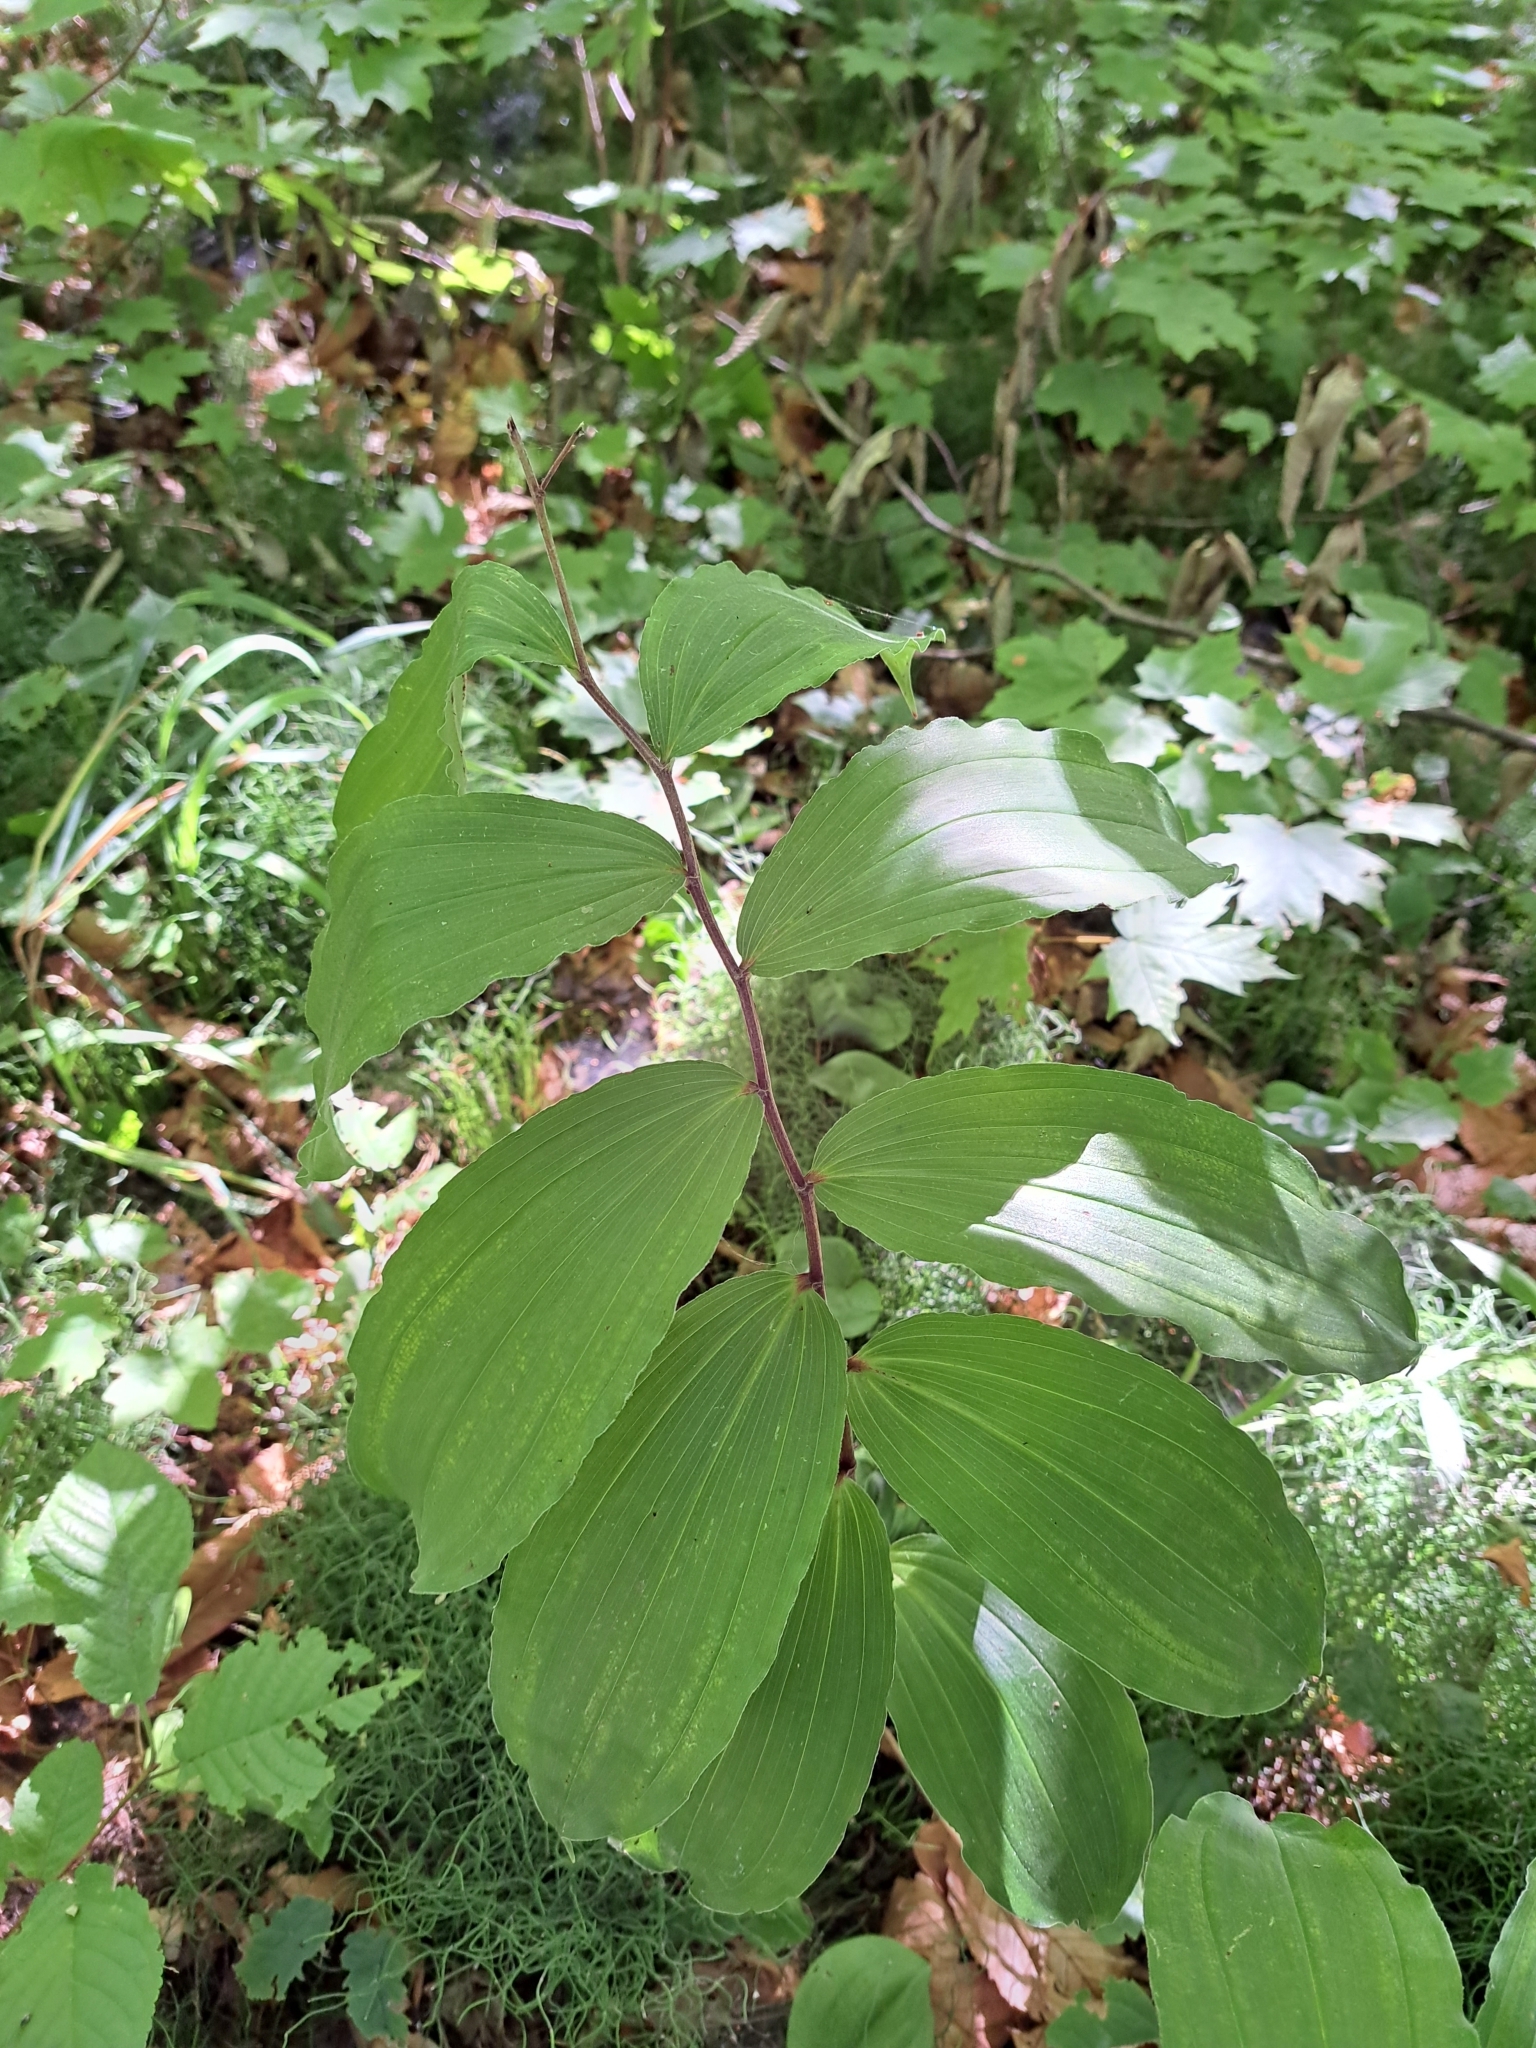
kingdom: Plantae
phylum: Tracheophyta
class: Liliopsida
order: Asparagales
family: Asparagaceae
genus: Maianthemum
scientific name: Maianthemum racemosum
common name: False spikenard
